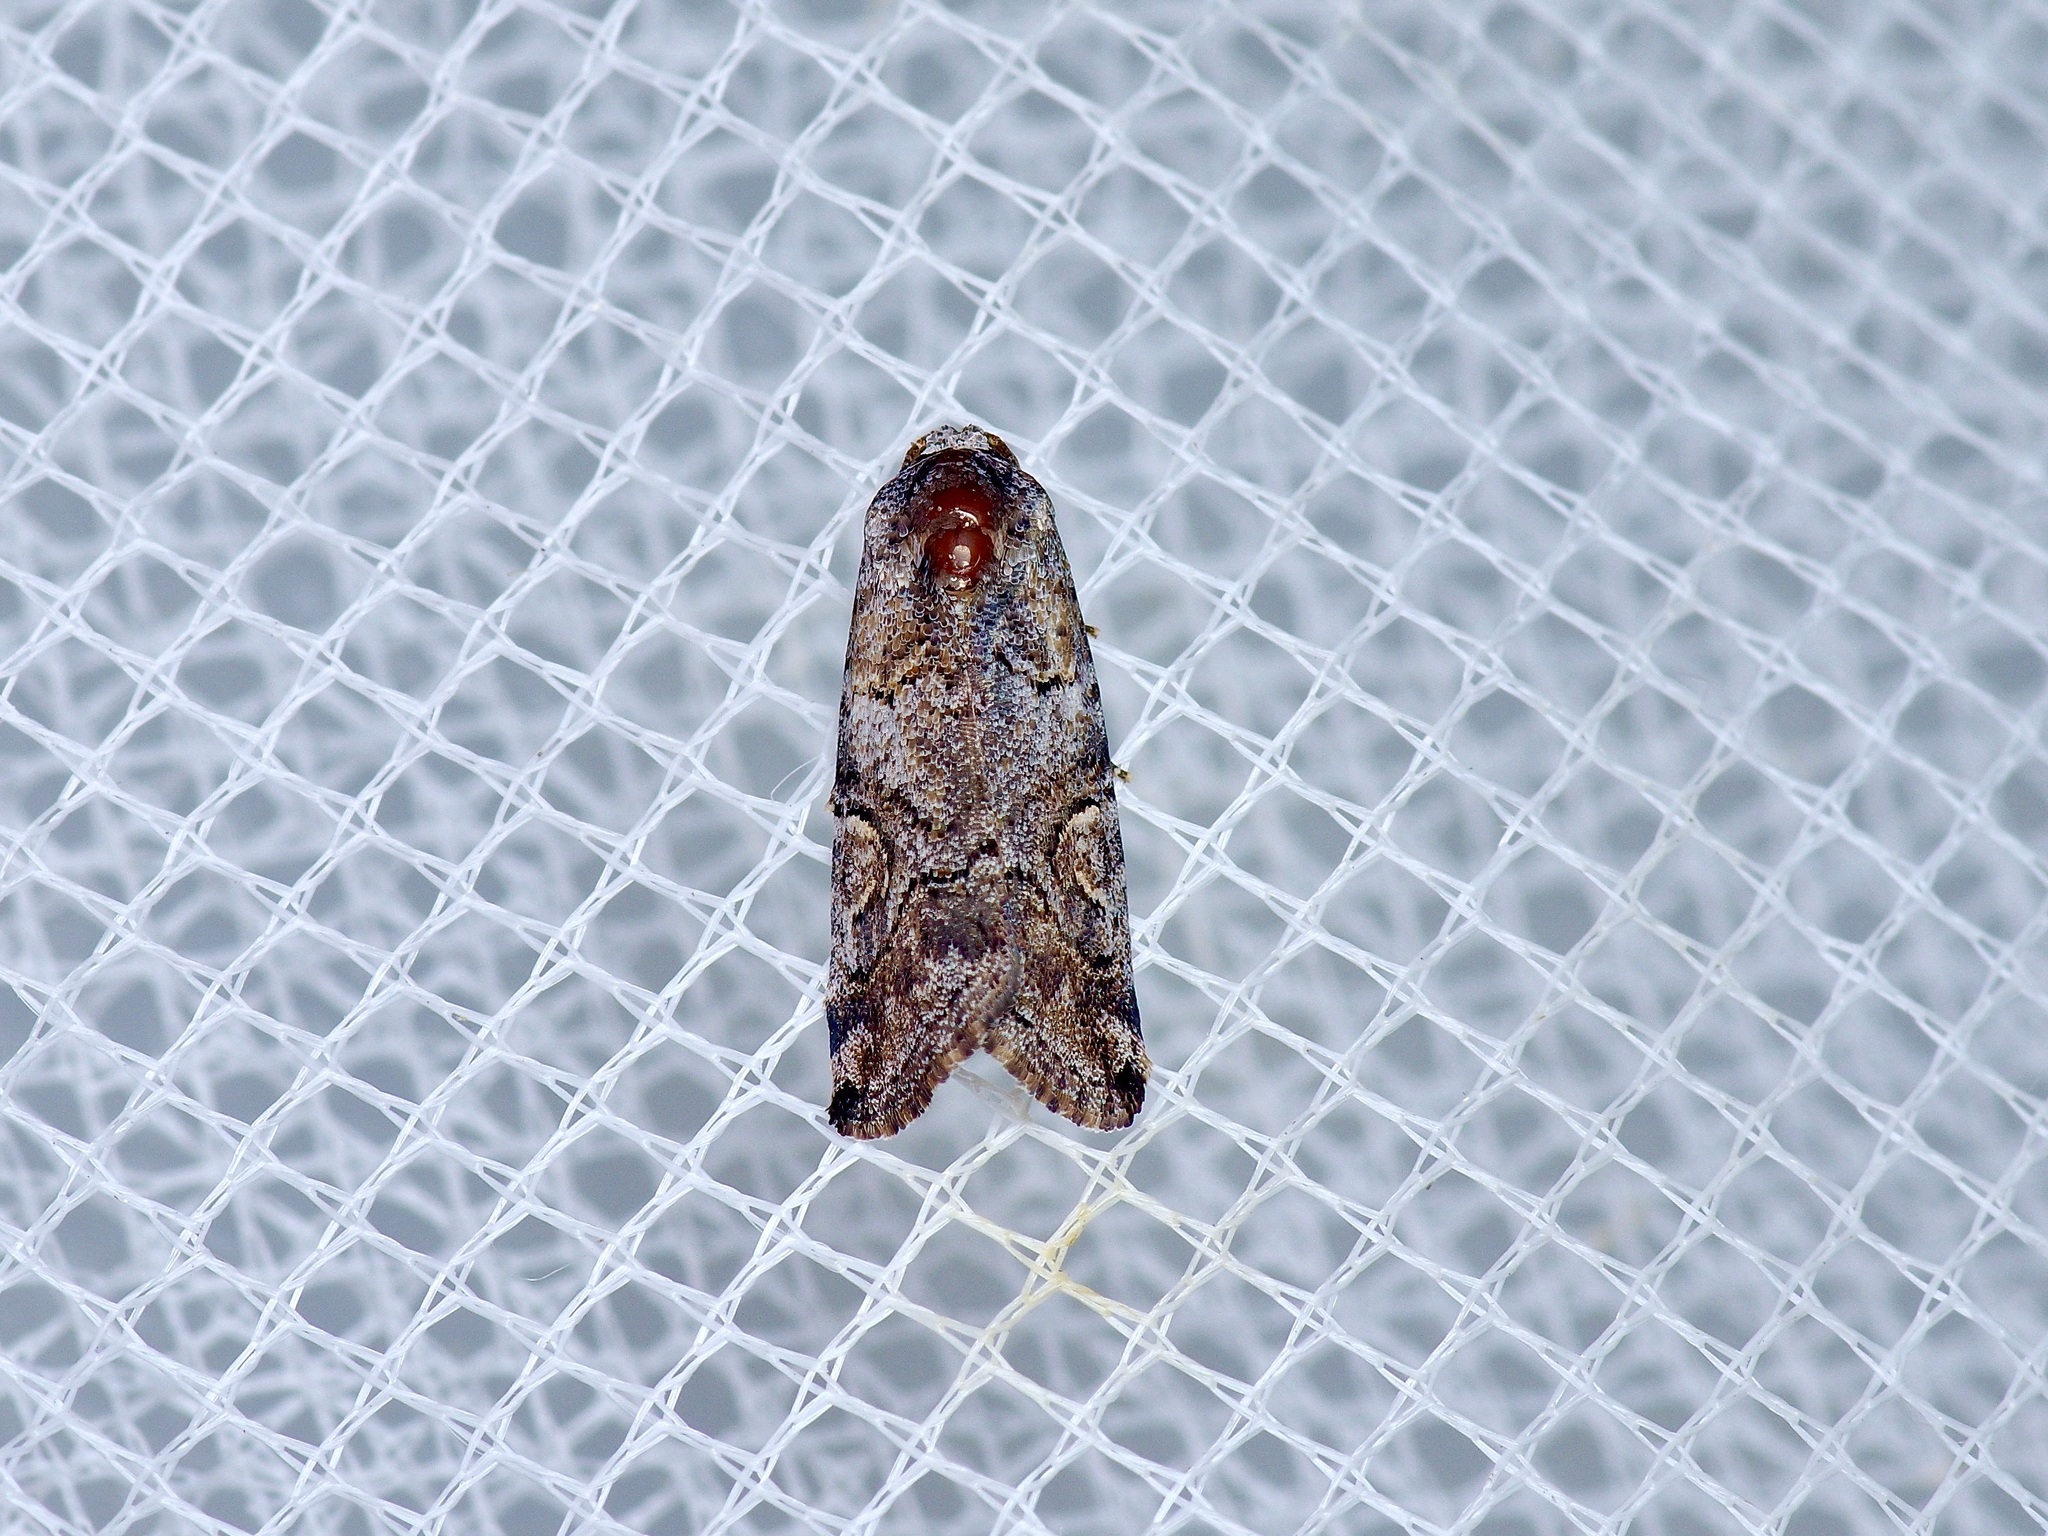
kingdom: Animalia
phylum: Arthropoda
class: Insecta
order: Lepidoptera
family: Noctuidae
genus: Metaponpneumata
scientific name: Metaponpneumata rogenhoferi
